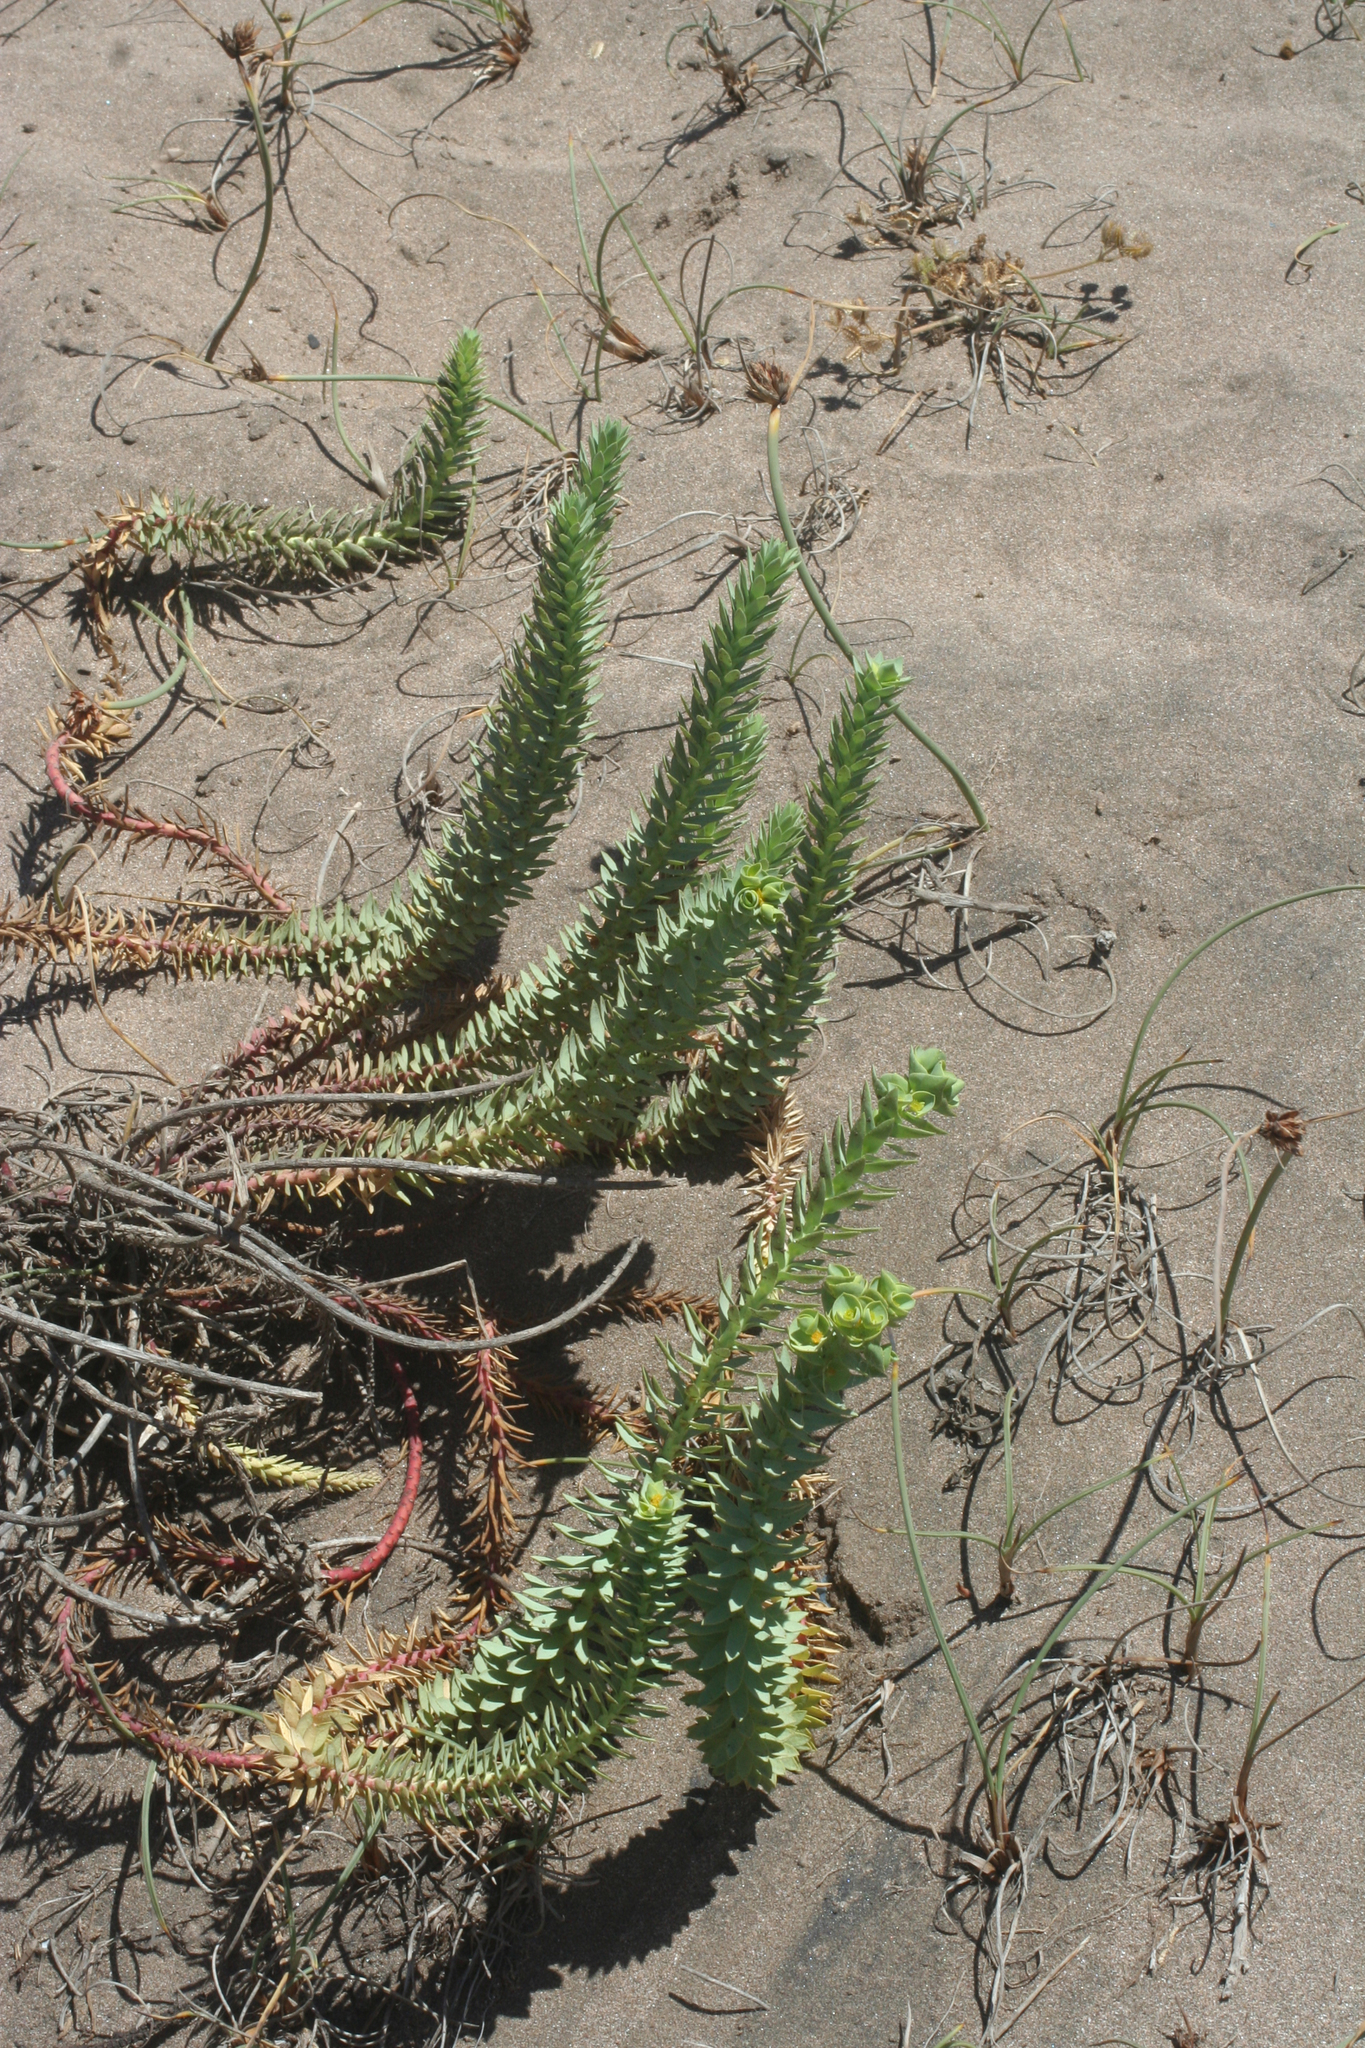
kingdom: Plantae
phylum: Tracheophyta
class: Magnoliopsida
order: Malpighiales
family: Euphorbiaceae
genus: Euphorbia
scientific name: Euphorbia paralias
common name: Sea spurge
